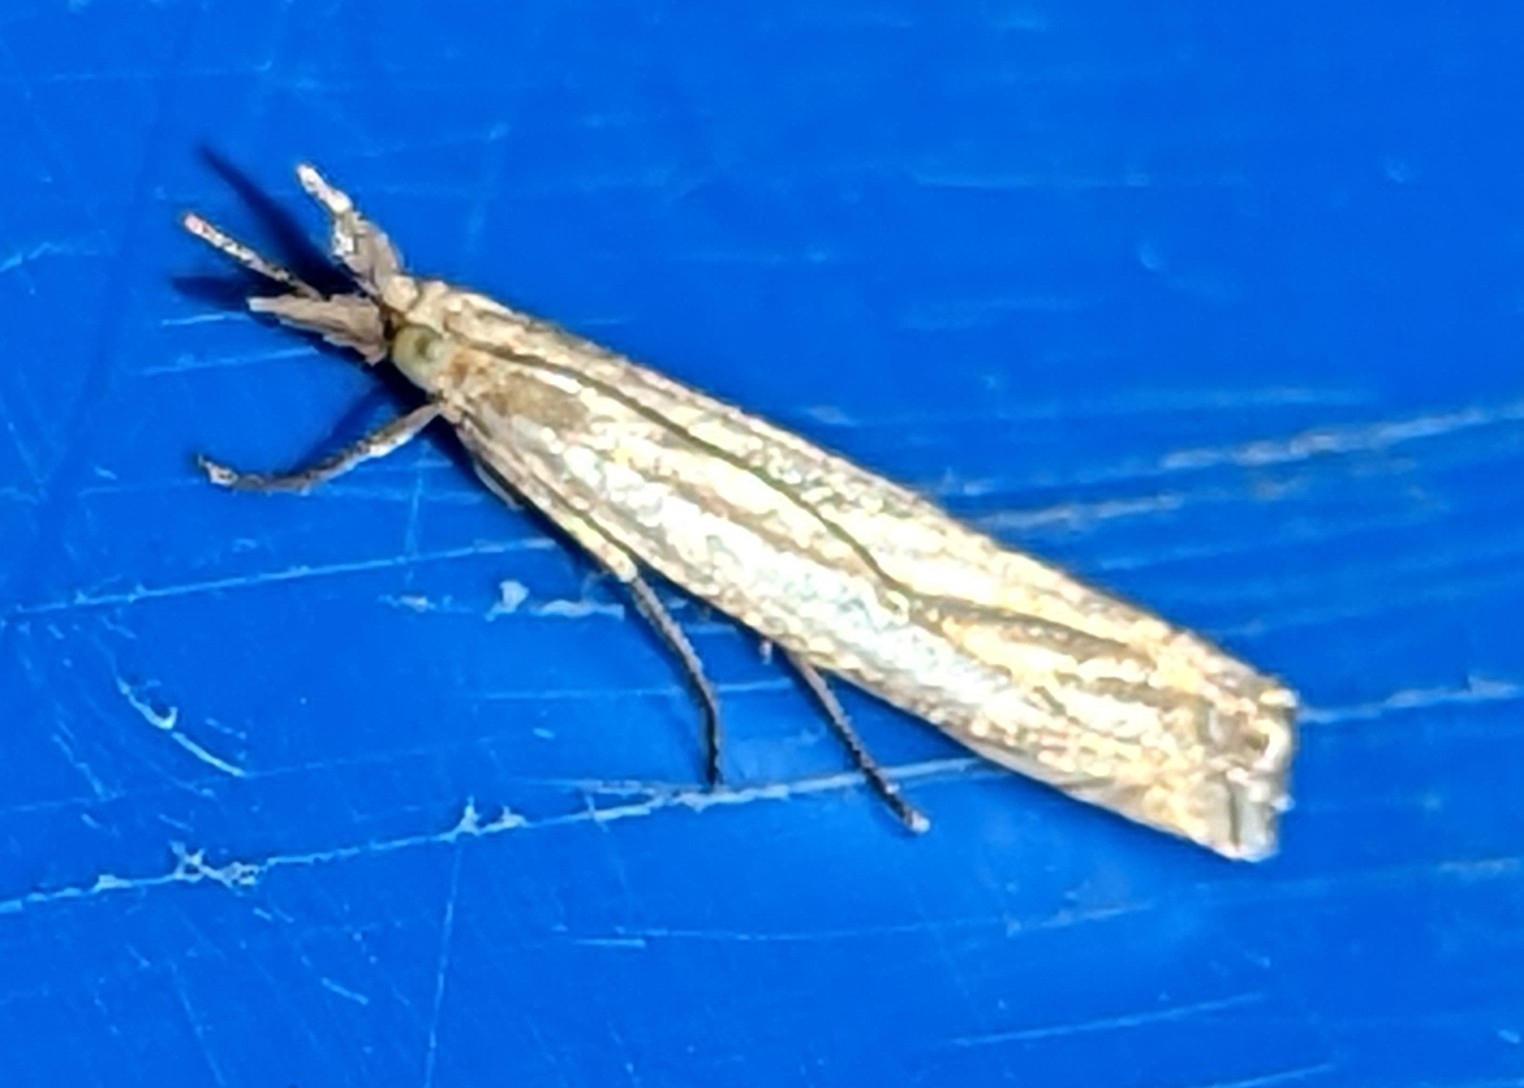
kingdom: Animalia
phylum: Arthropoda
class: Insecta
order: Lepidoptera
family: Crambidae
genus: Crambus
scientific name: Crambus pascuella
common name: Inlaid grass-veneer
